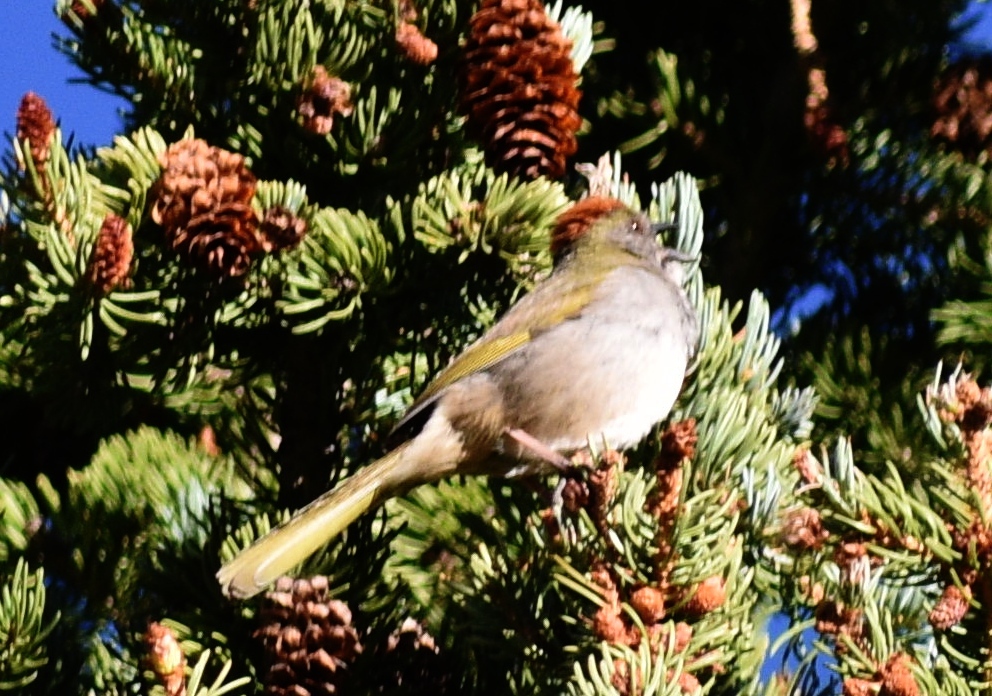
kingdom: Animalia
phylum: Chordata
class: Aves
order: Passeriformes
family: Passerellidae
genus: Pipilo
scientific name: Pipilo chlorurus
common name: Green-tailed towhee
